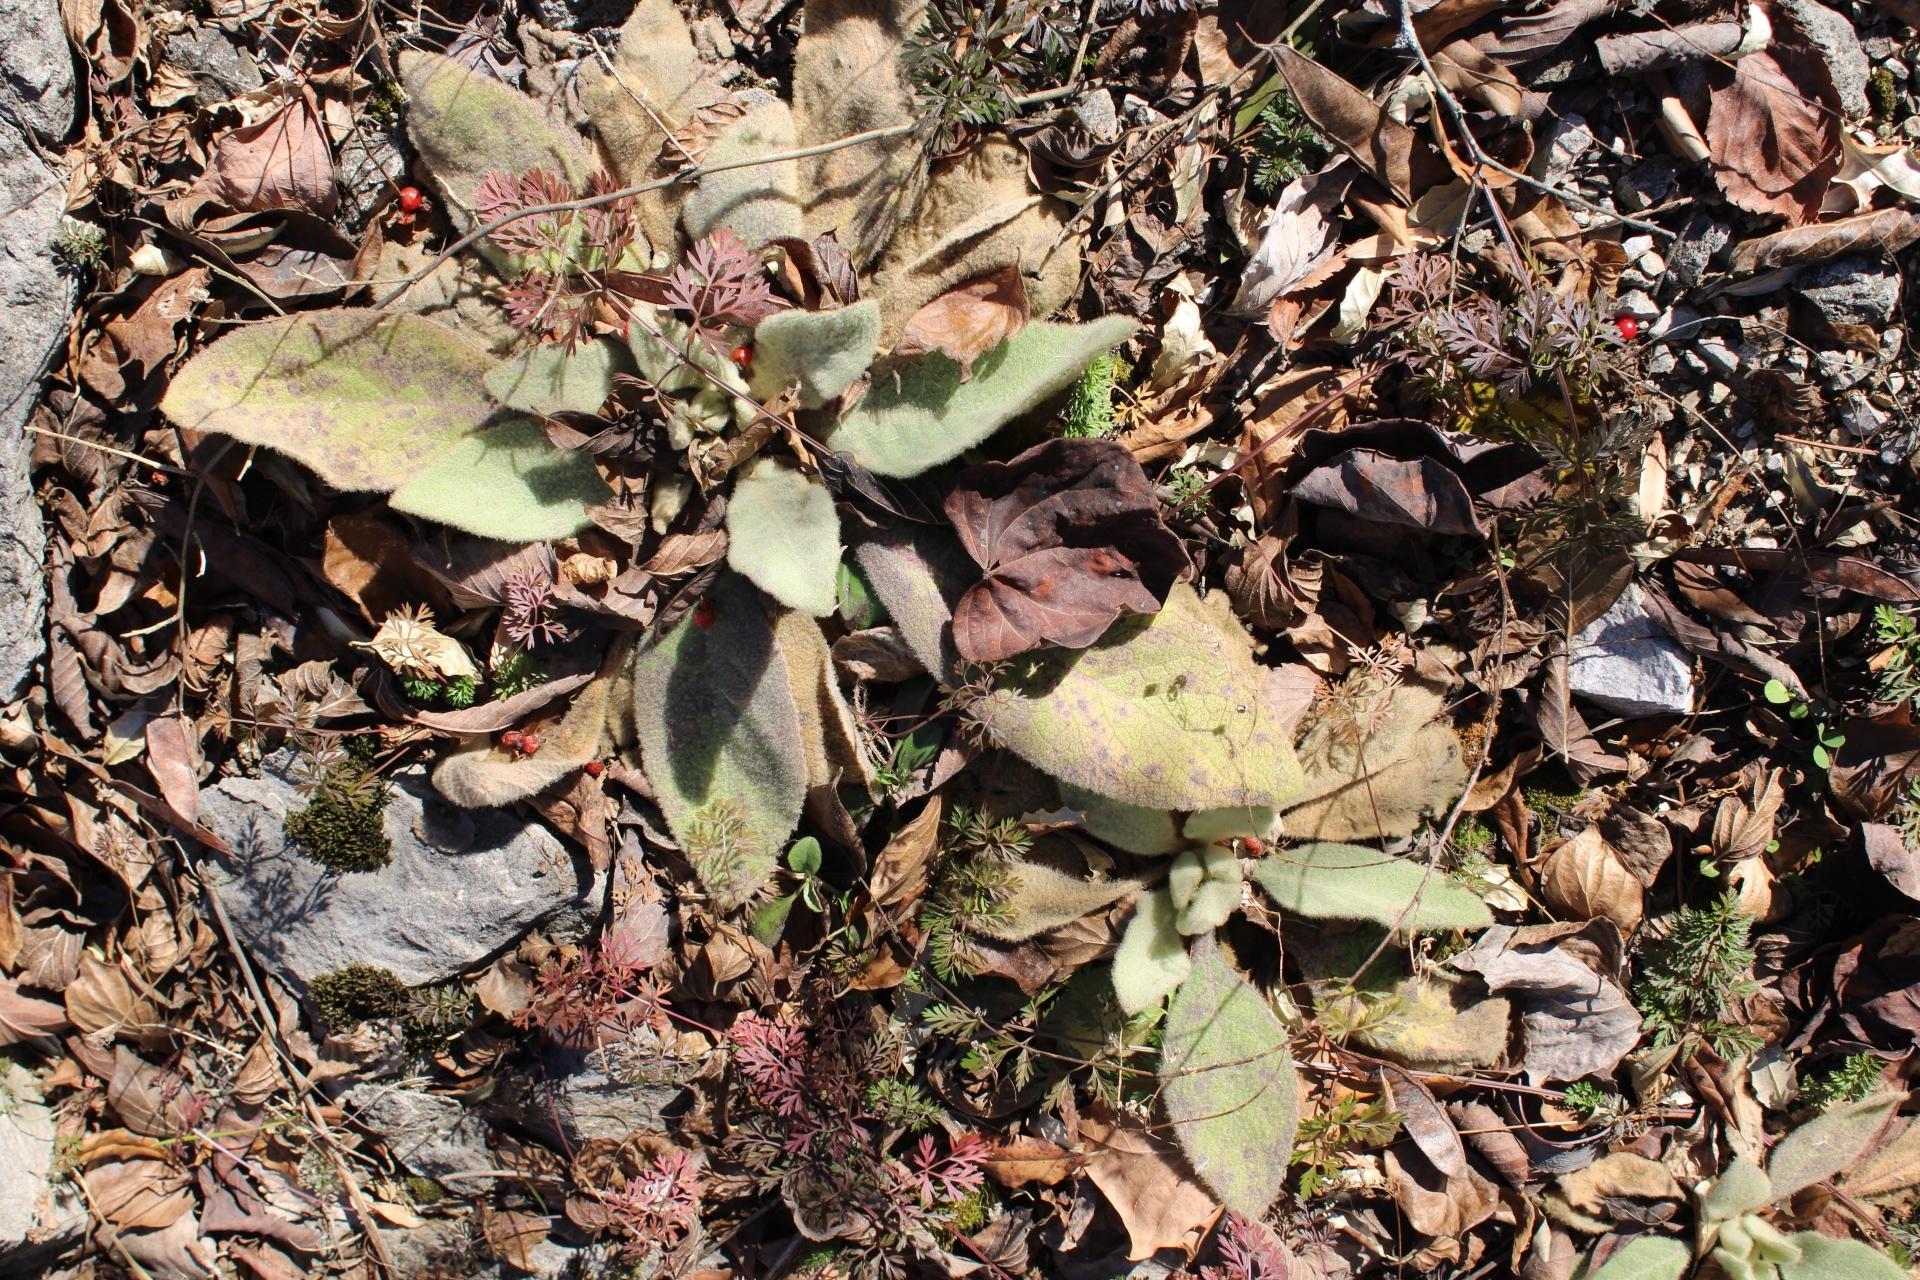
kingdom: Plantae
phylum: Tracheophyta
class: Magnoliopsida
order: Lamiales
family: Scrophulariaceae
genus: Verbascum
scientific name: Verbascum thapsus
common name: Common mullein
